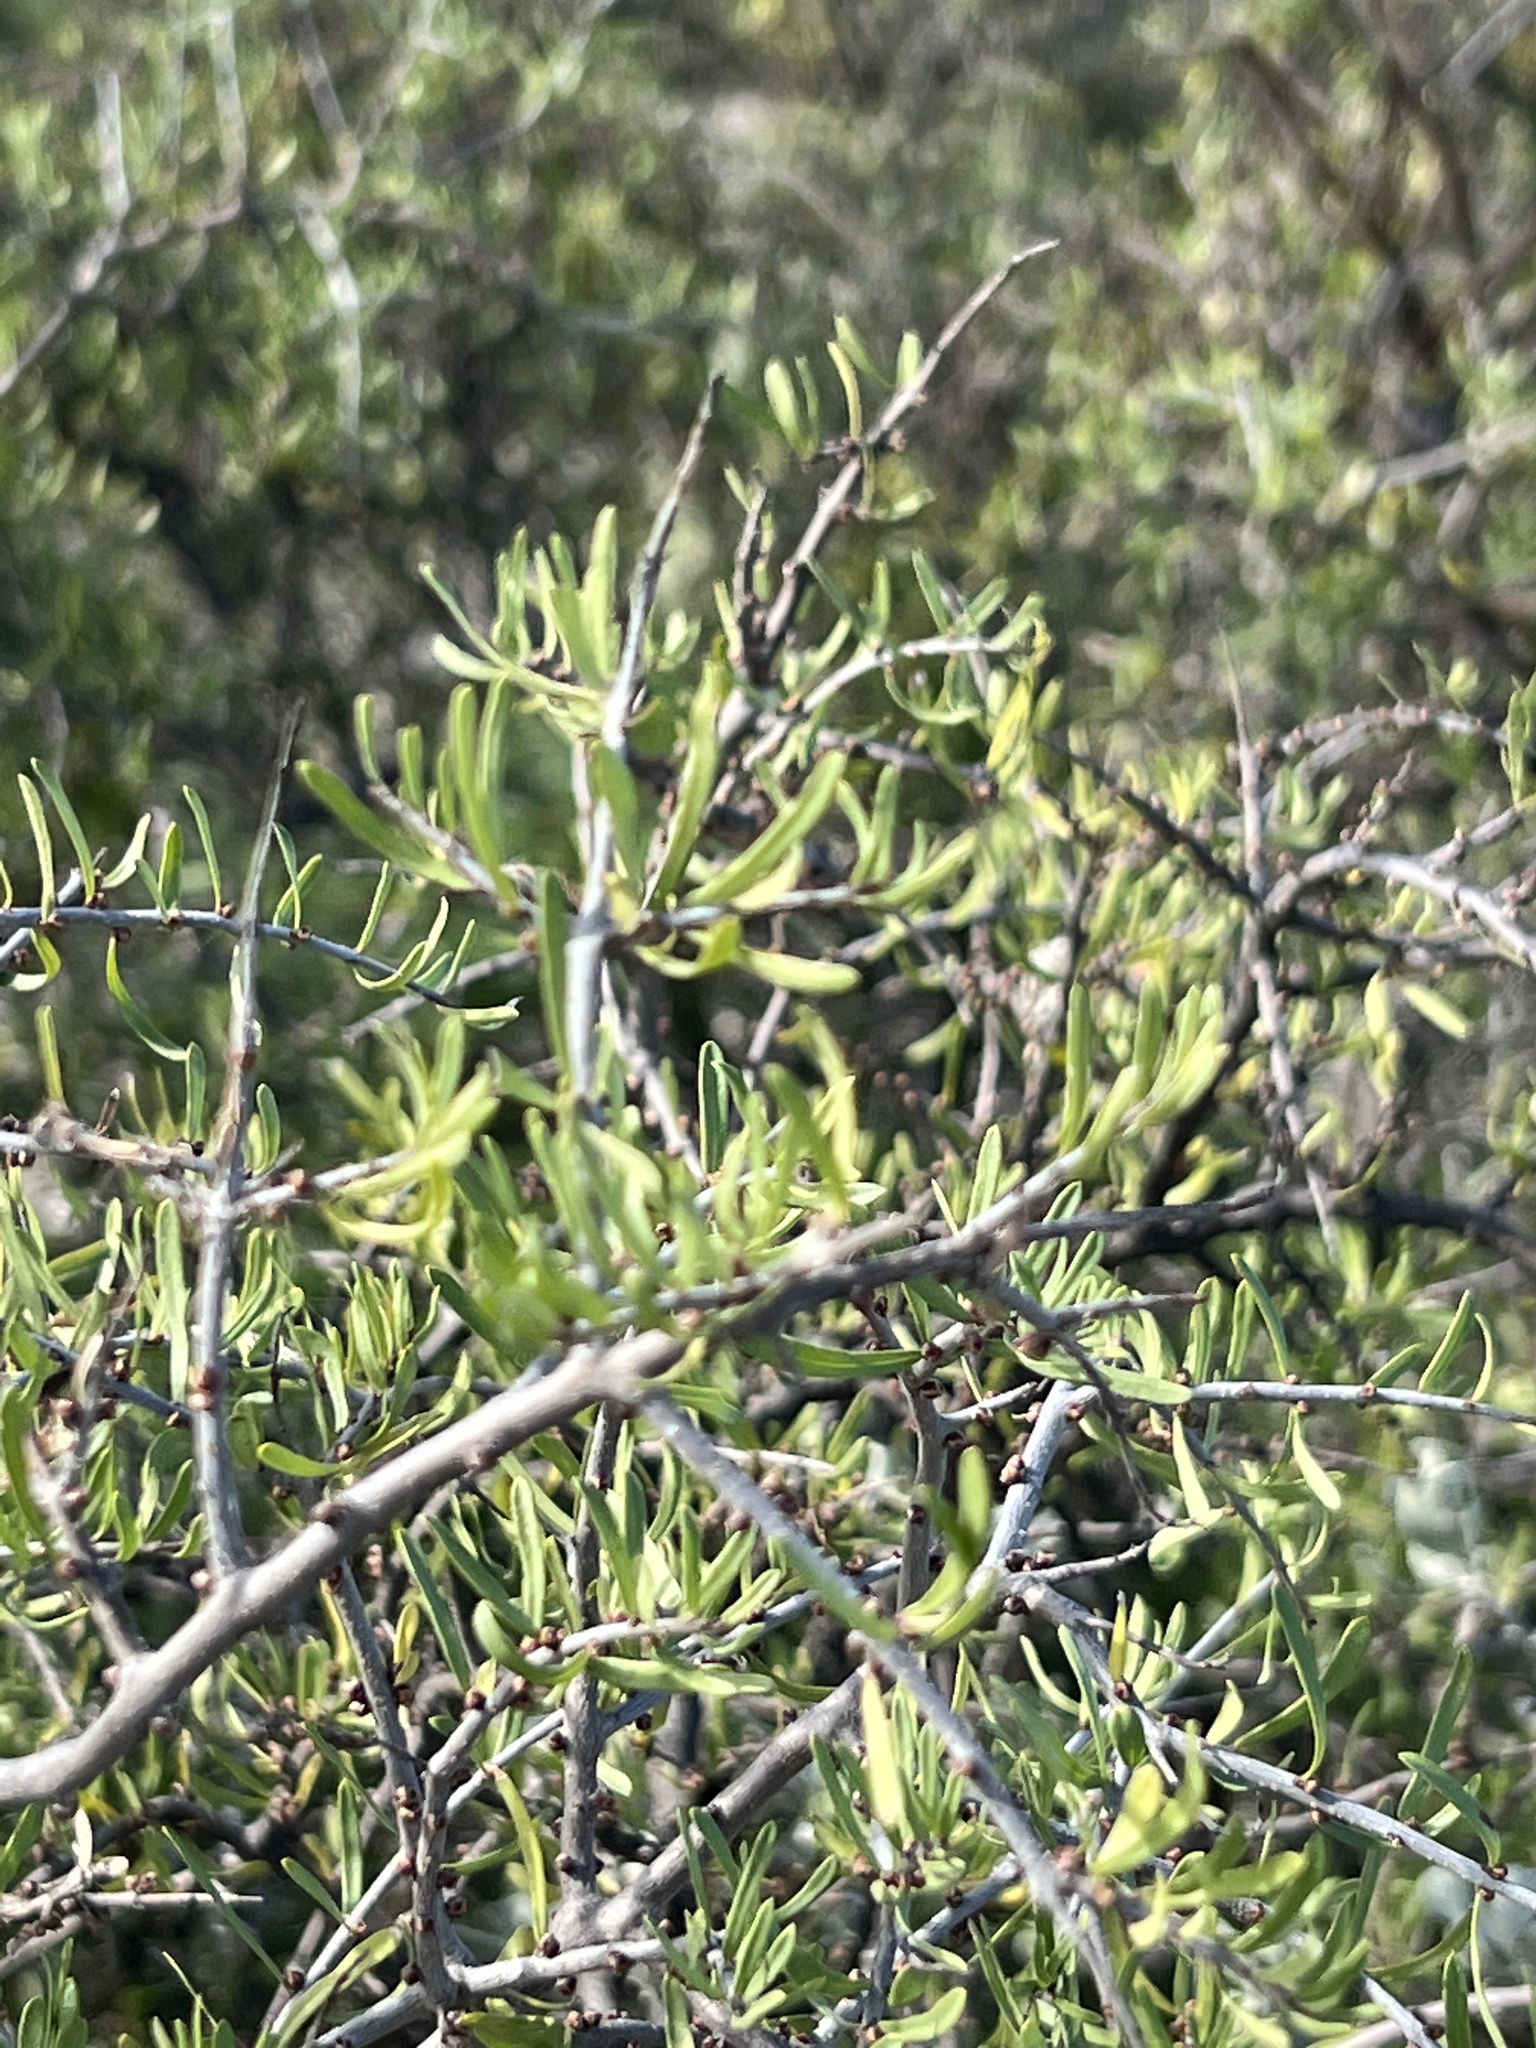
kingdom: Plantae
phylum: Tracheophyta
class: Magnoliopsida
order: Lamiales
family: Oleaceae
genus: Forestiera
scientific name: Forestiera angustifolia
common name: Elbowbush
